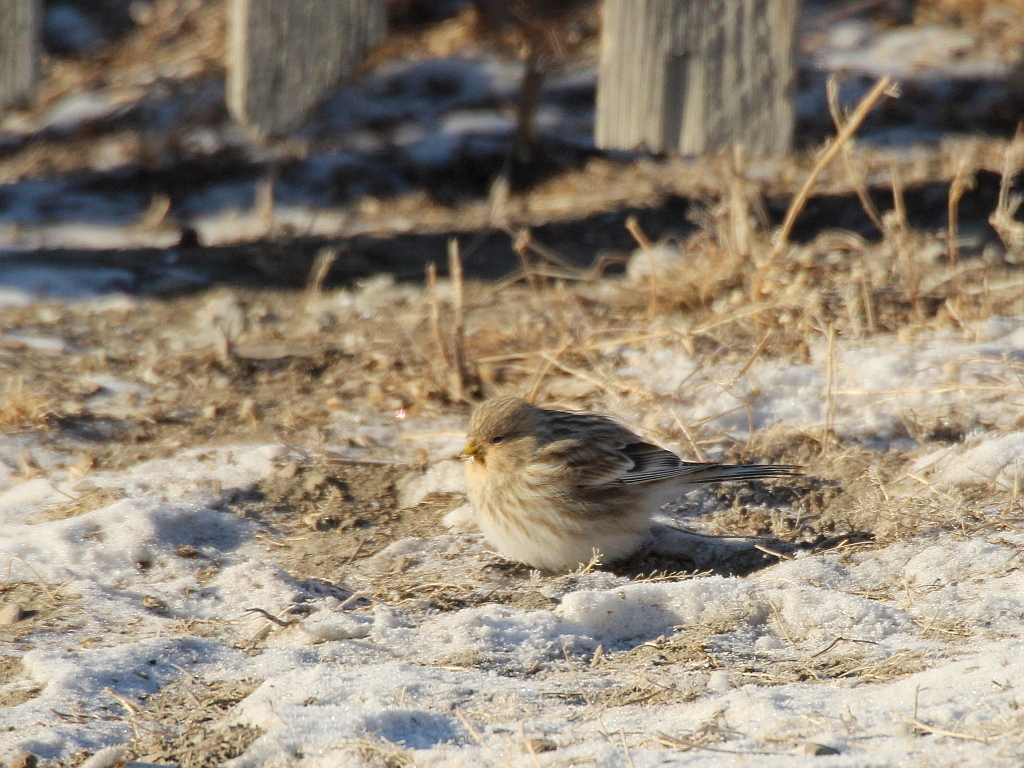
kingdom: Animalia
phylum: Chordata
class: Aves
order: Passeriformes
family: Fringillidae
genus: Linaria
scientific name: Linaria flavirostris
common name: Twite
